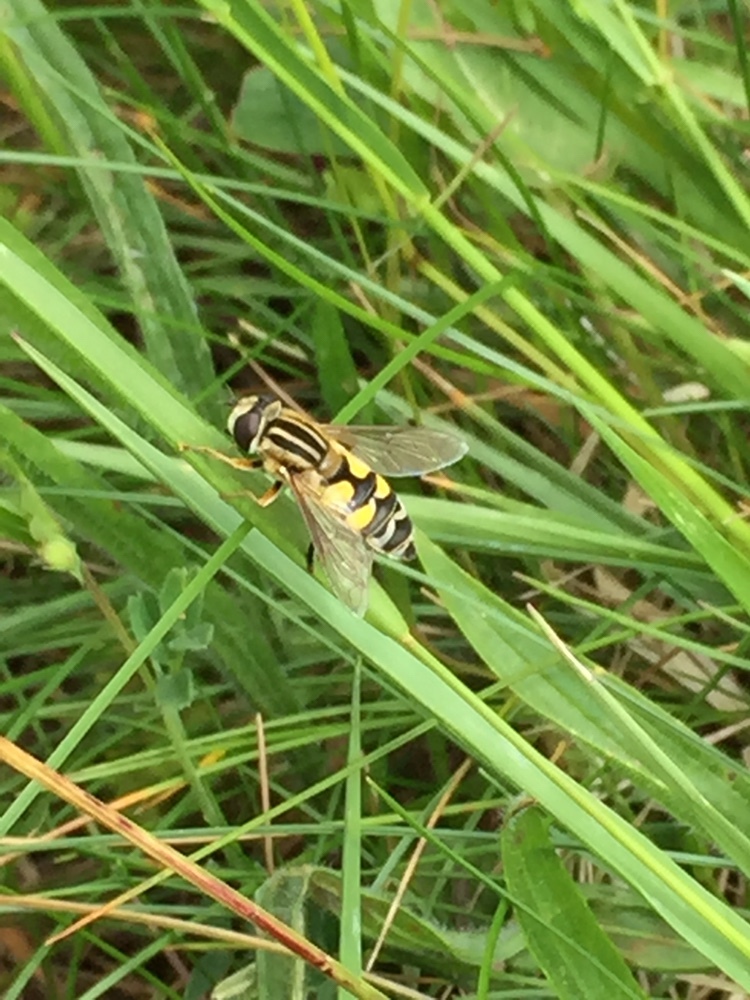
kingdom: Animalia
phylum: Arthropoda
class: Insecta
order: Diptera
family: Syrphidae
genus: Helophilus
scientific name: Helophilus trivittatus
